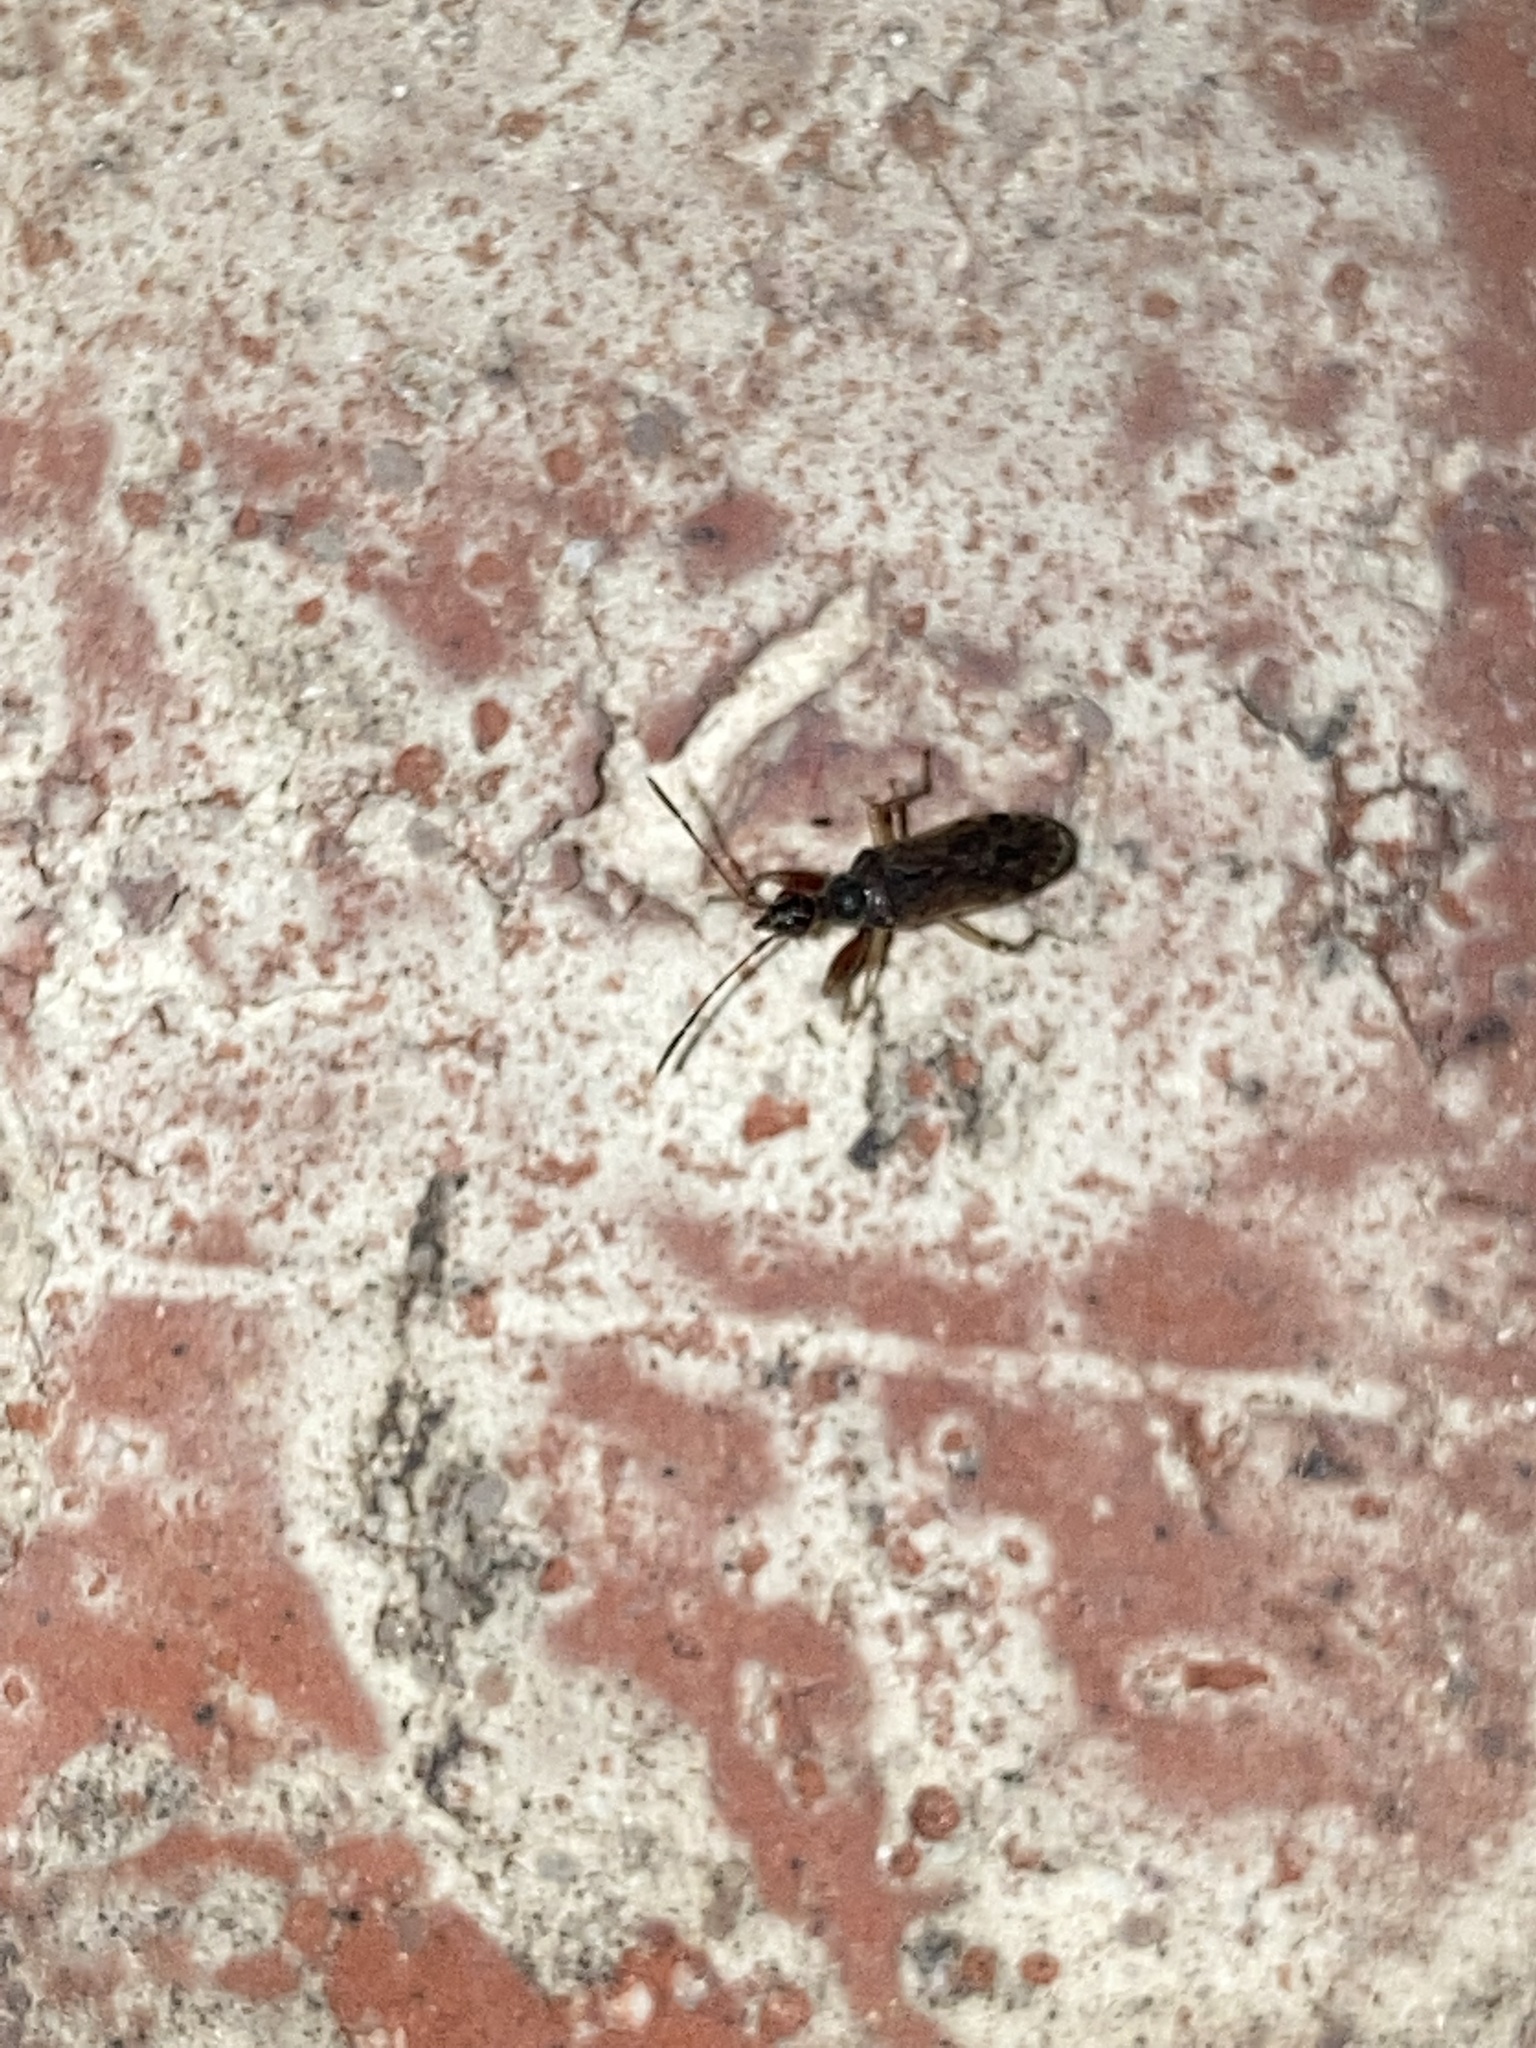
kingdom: Animalia
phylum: Arthropoda
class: Insecta
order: Hemiptera
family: Rhyparochromidae
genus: Myodocha
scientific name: Myodocha serripes
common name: Long-necked seed bug
